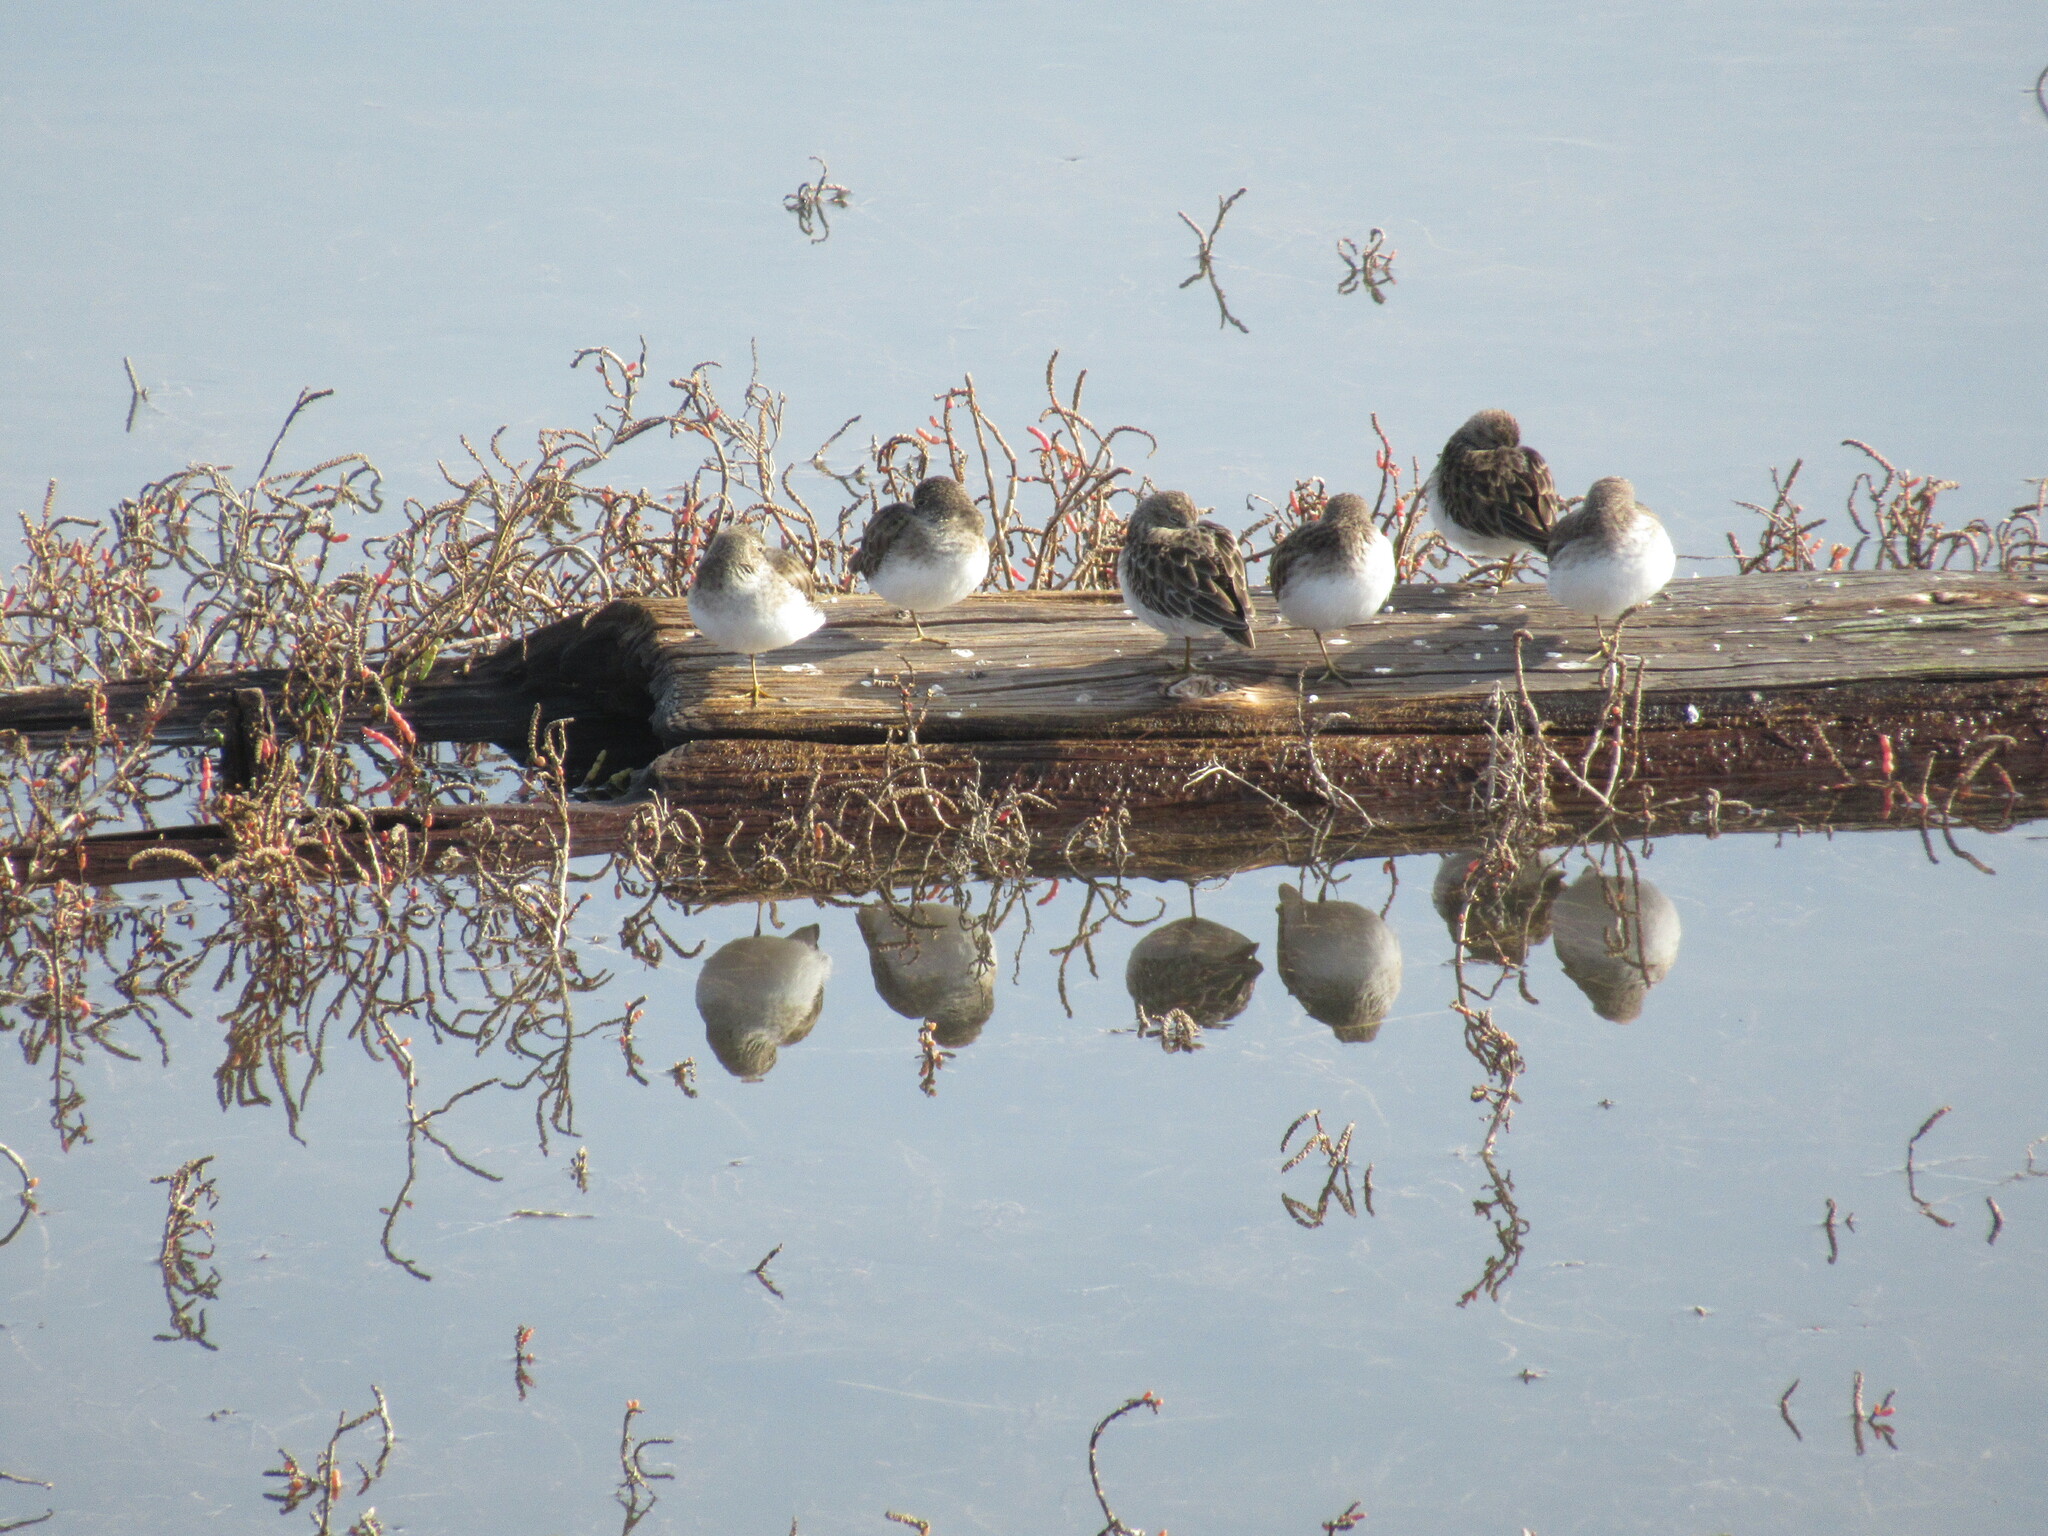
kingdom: Animalia
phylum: Chordata
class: Aves
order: Charadriiformes
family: Scolopacidae
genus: Calidris
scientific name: Calidris minutilla
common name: Least sandpiper
